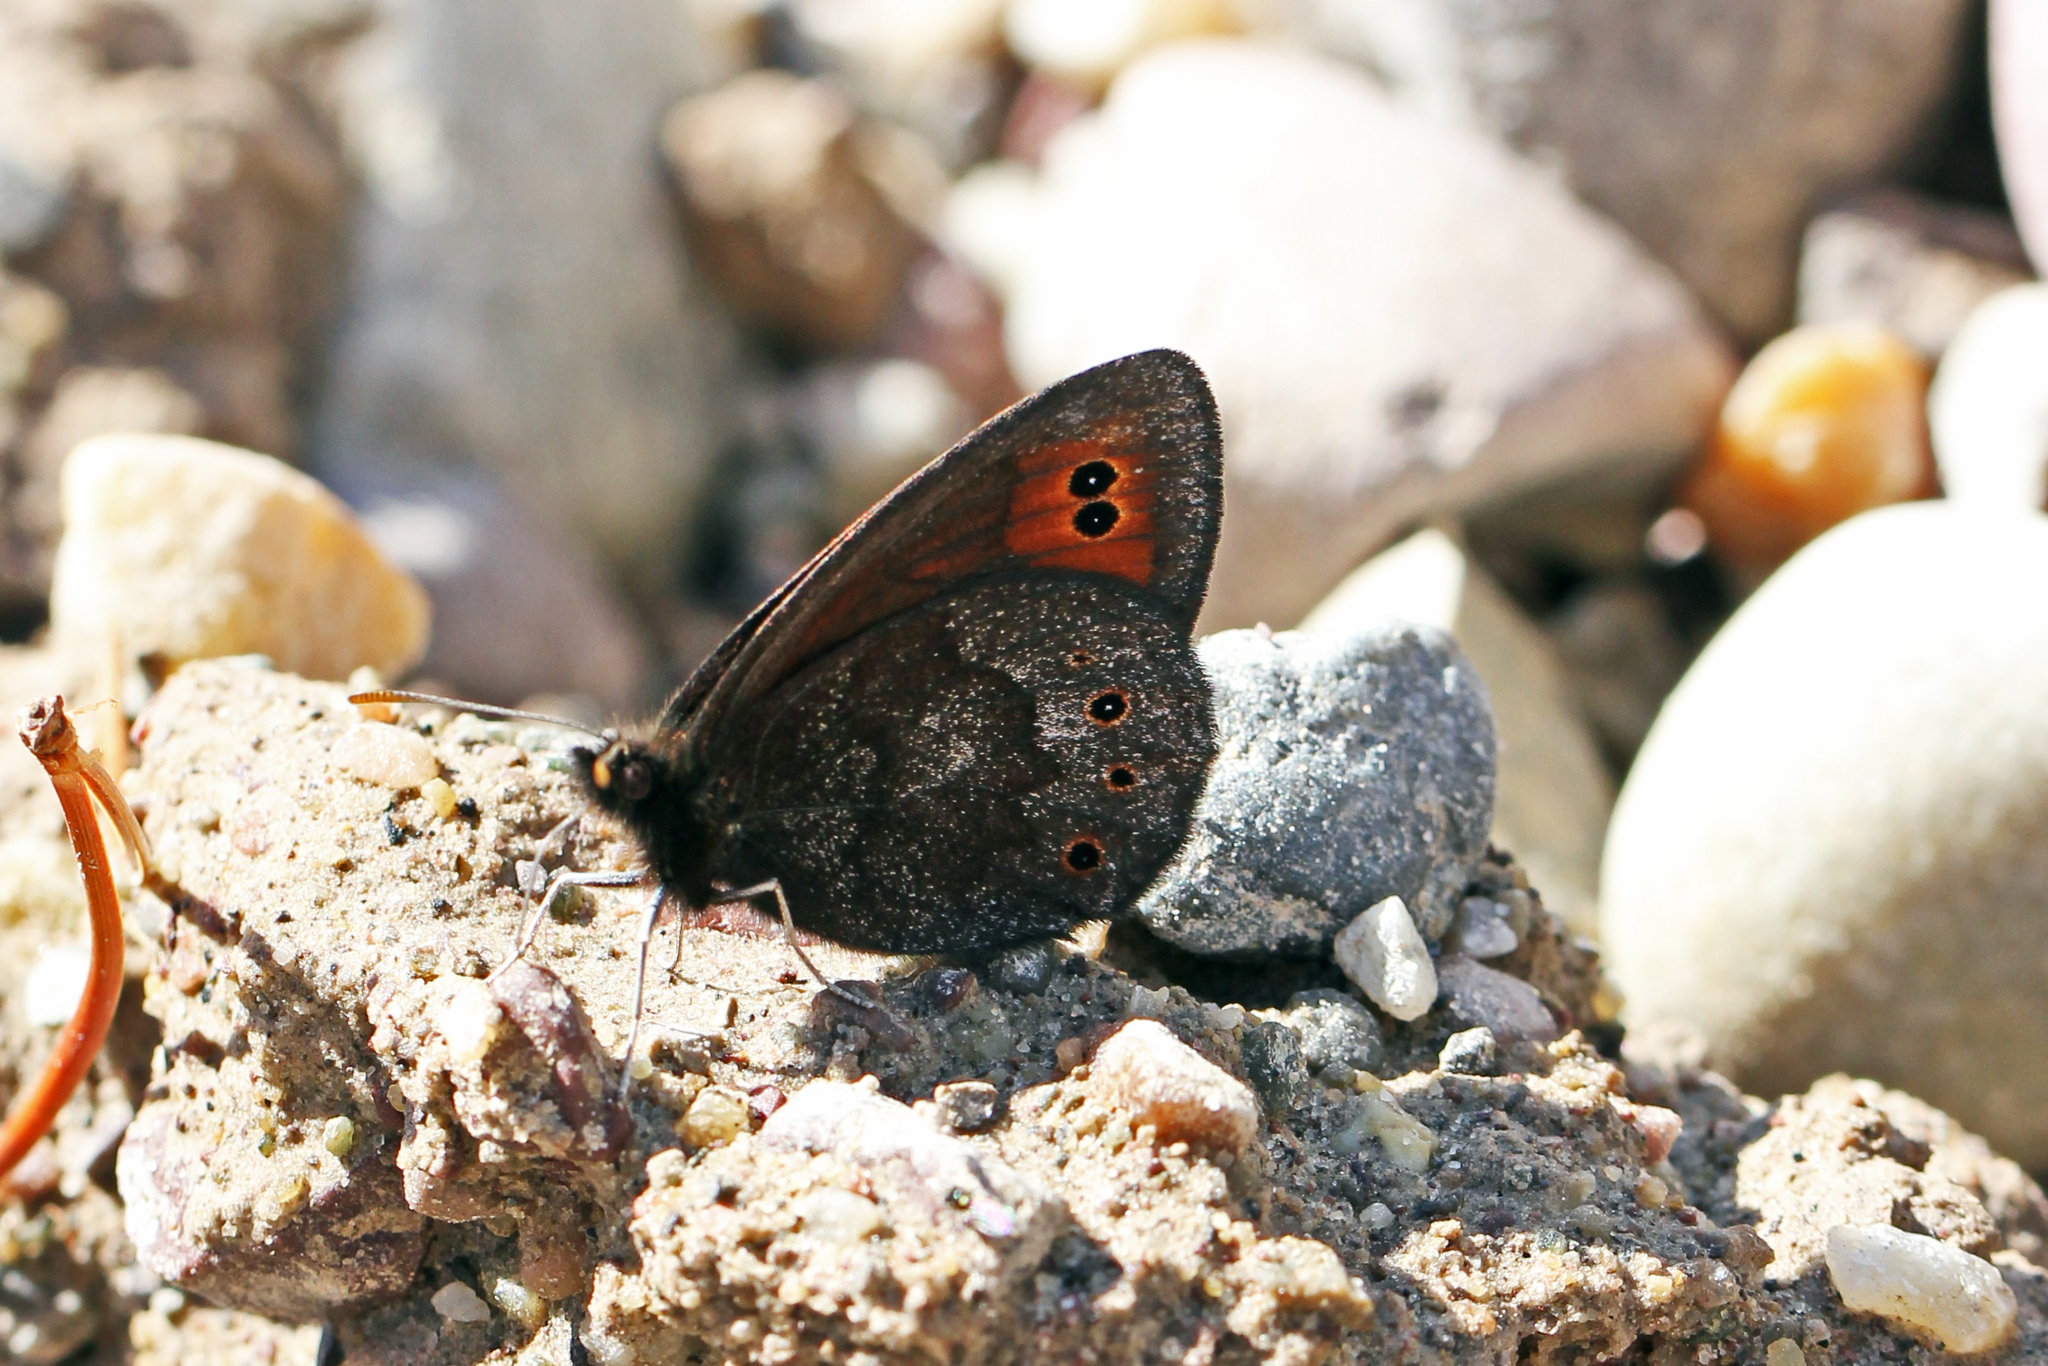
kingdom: Animalia
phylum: Arthropoda
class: Insecta
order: Lepidoptera
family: Nymphalidae
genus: Erebia
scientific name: Erebia epipsodea
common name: Common alpine
